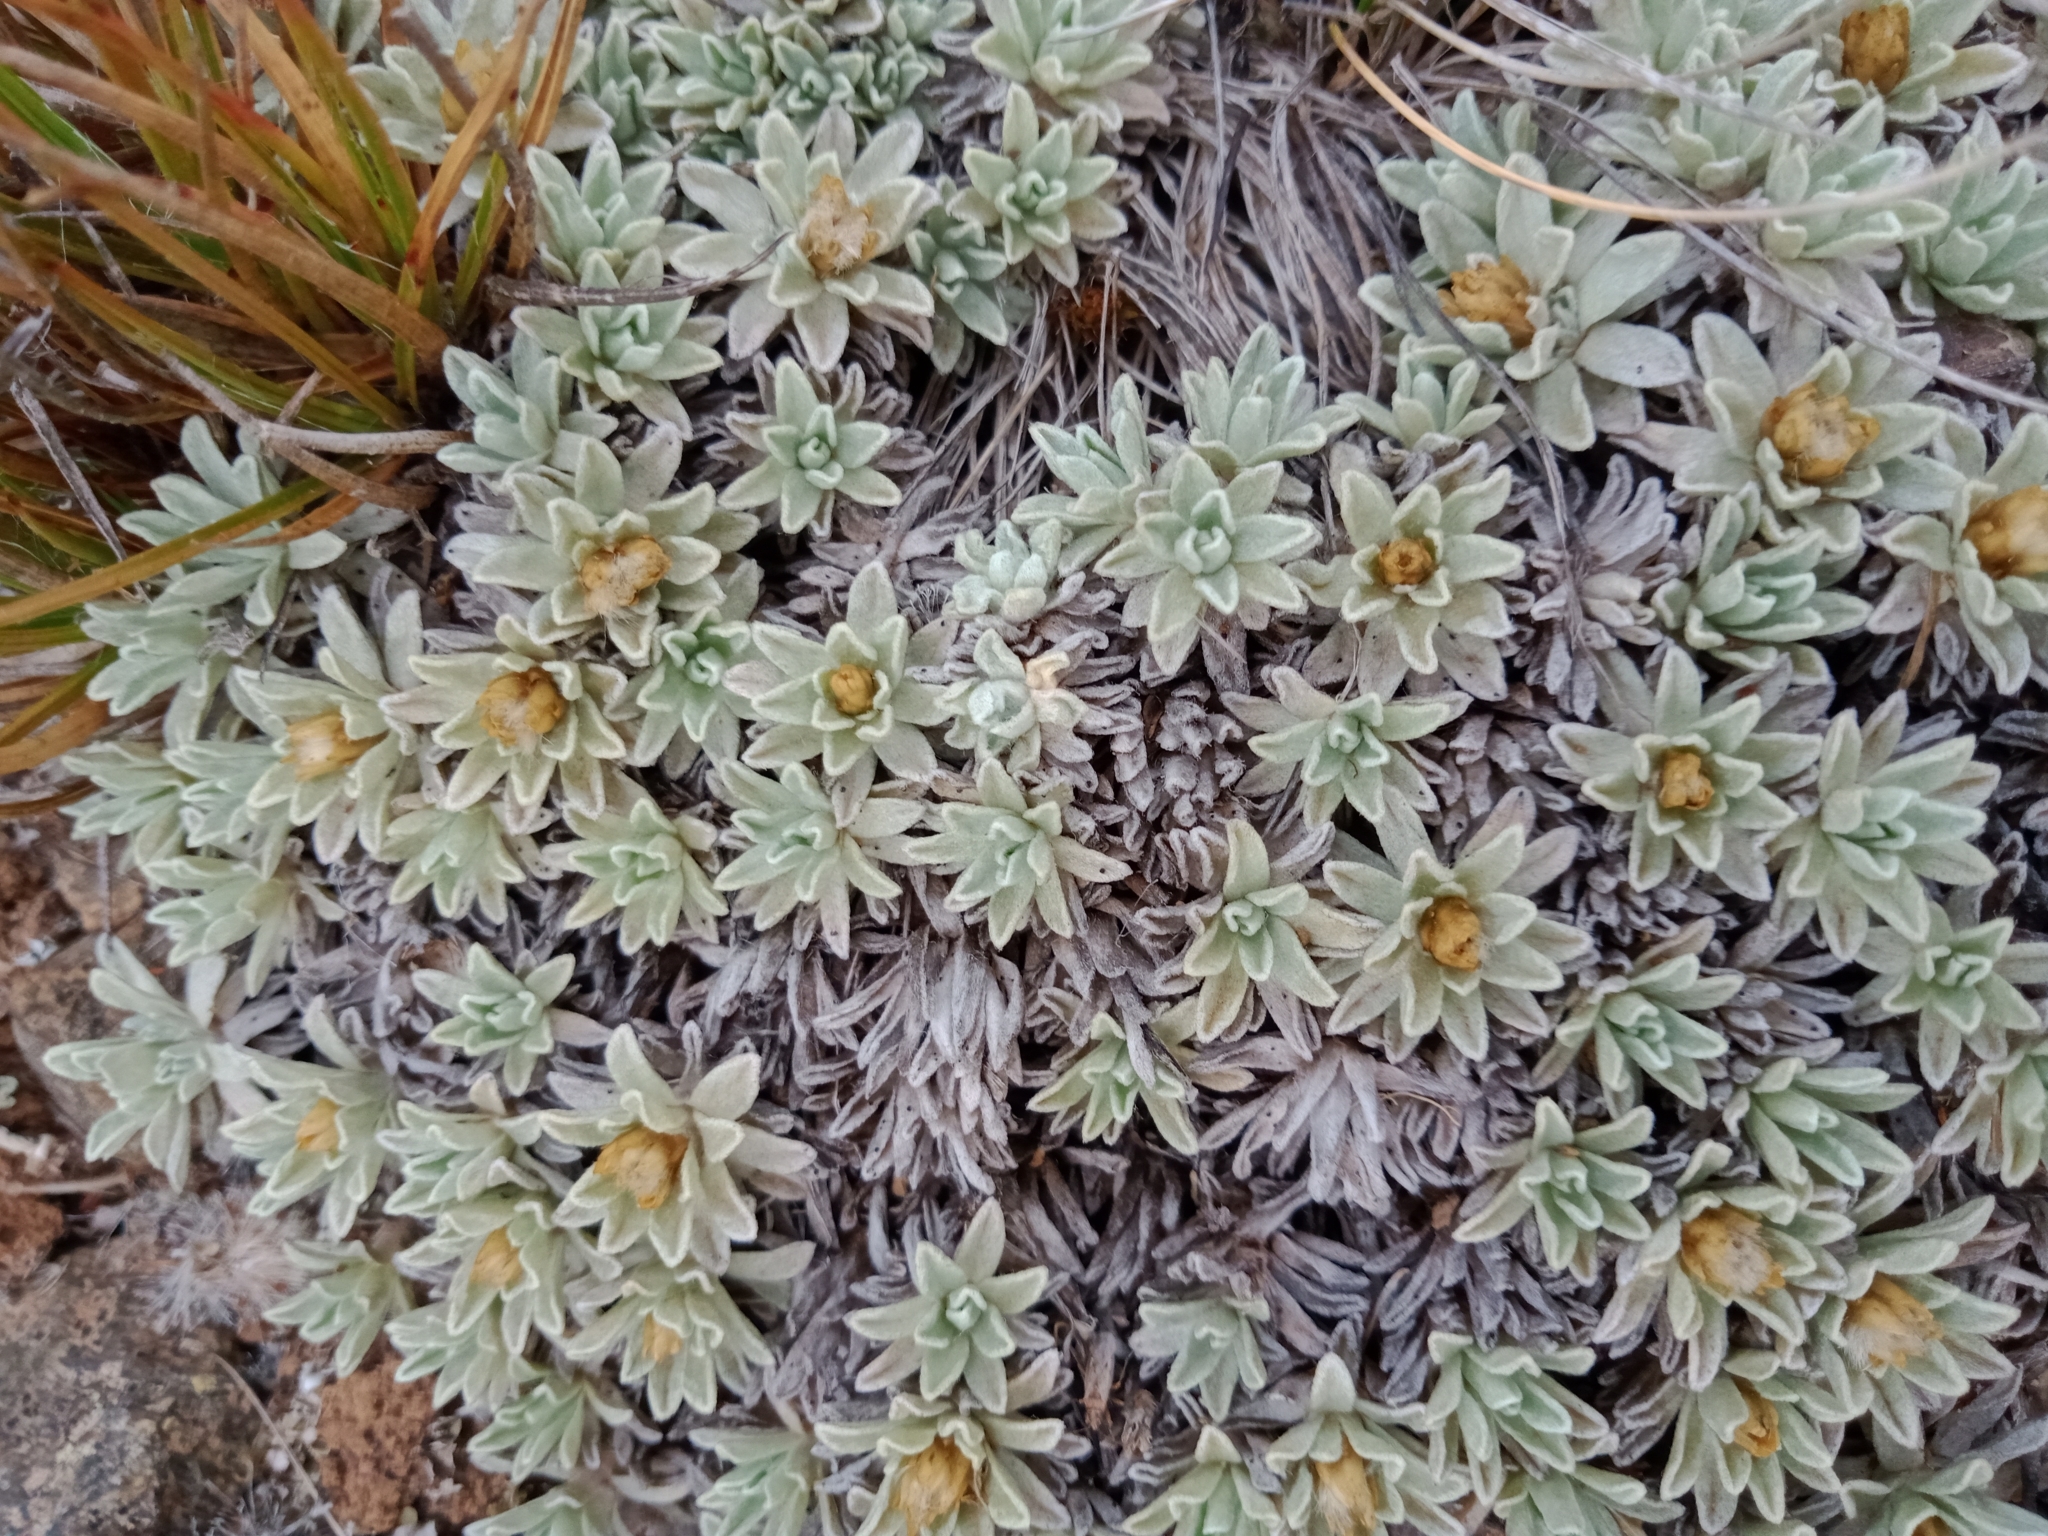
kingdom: Plantae
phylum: Tracheophyta
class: Magnoliopsida
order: Asterales
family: Asteraceae
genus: Argyrotegium
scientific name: Argyrotegium nitidulum
